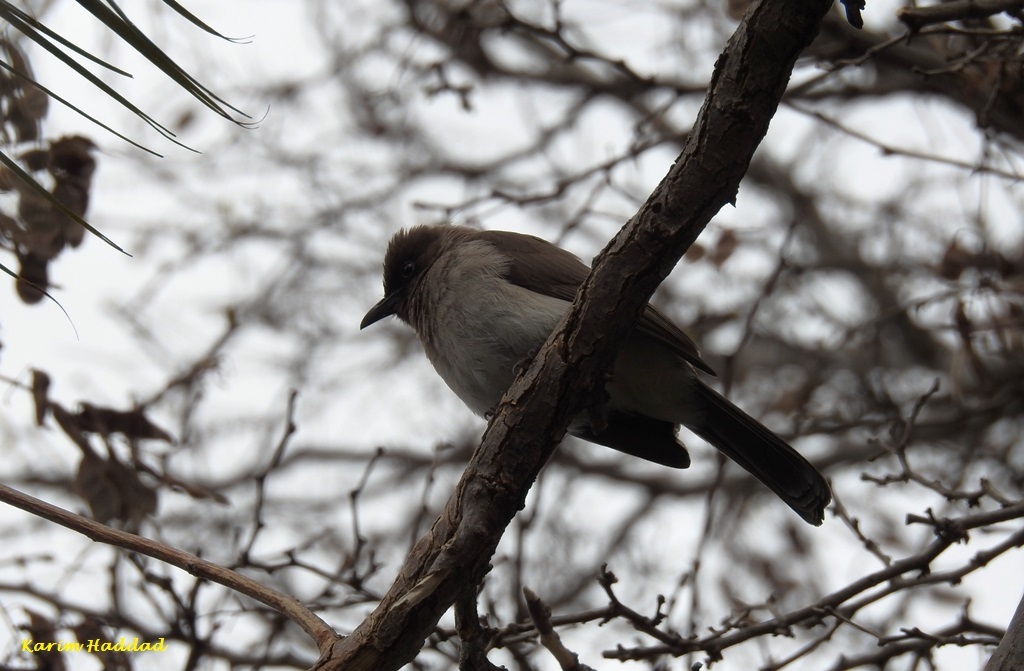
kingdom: Animalia
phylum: Chordata
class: Aves
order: Passeriformes
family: Pycnonotidae
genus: Pycnonotus
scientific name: Pycnonotus barbatus
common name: Common bulbul
